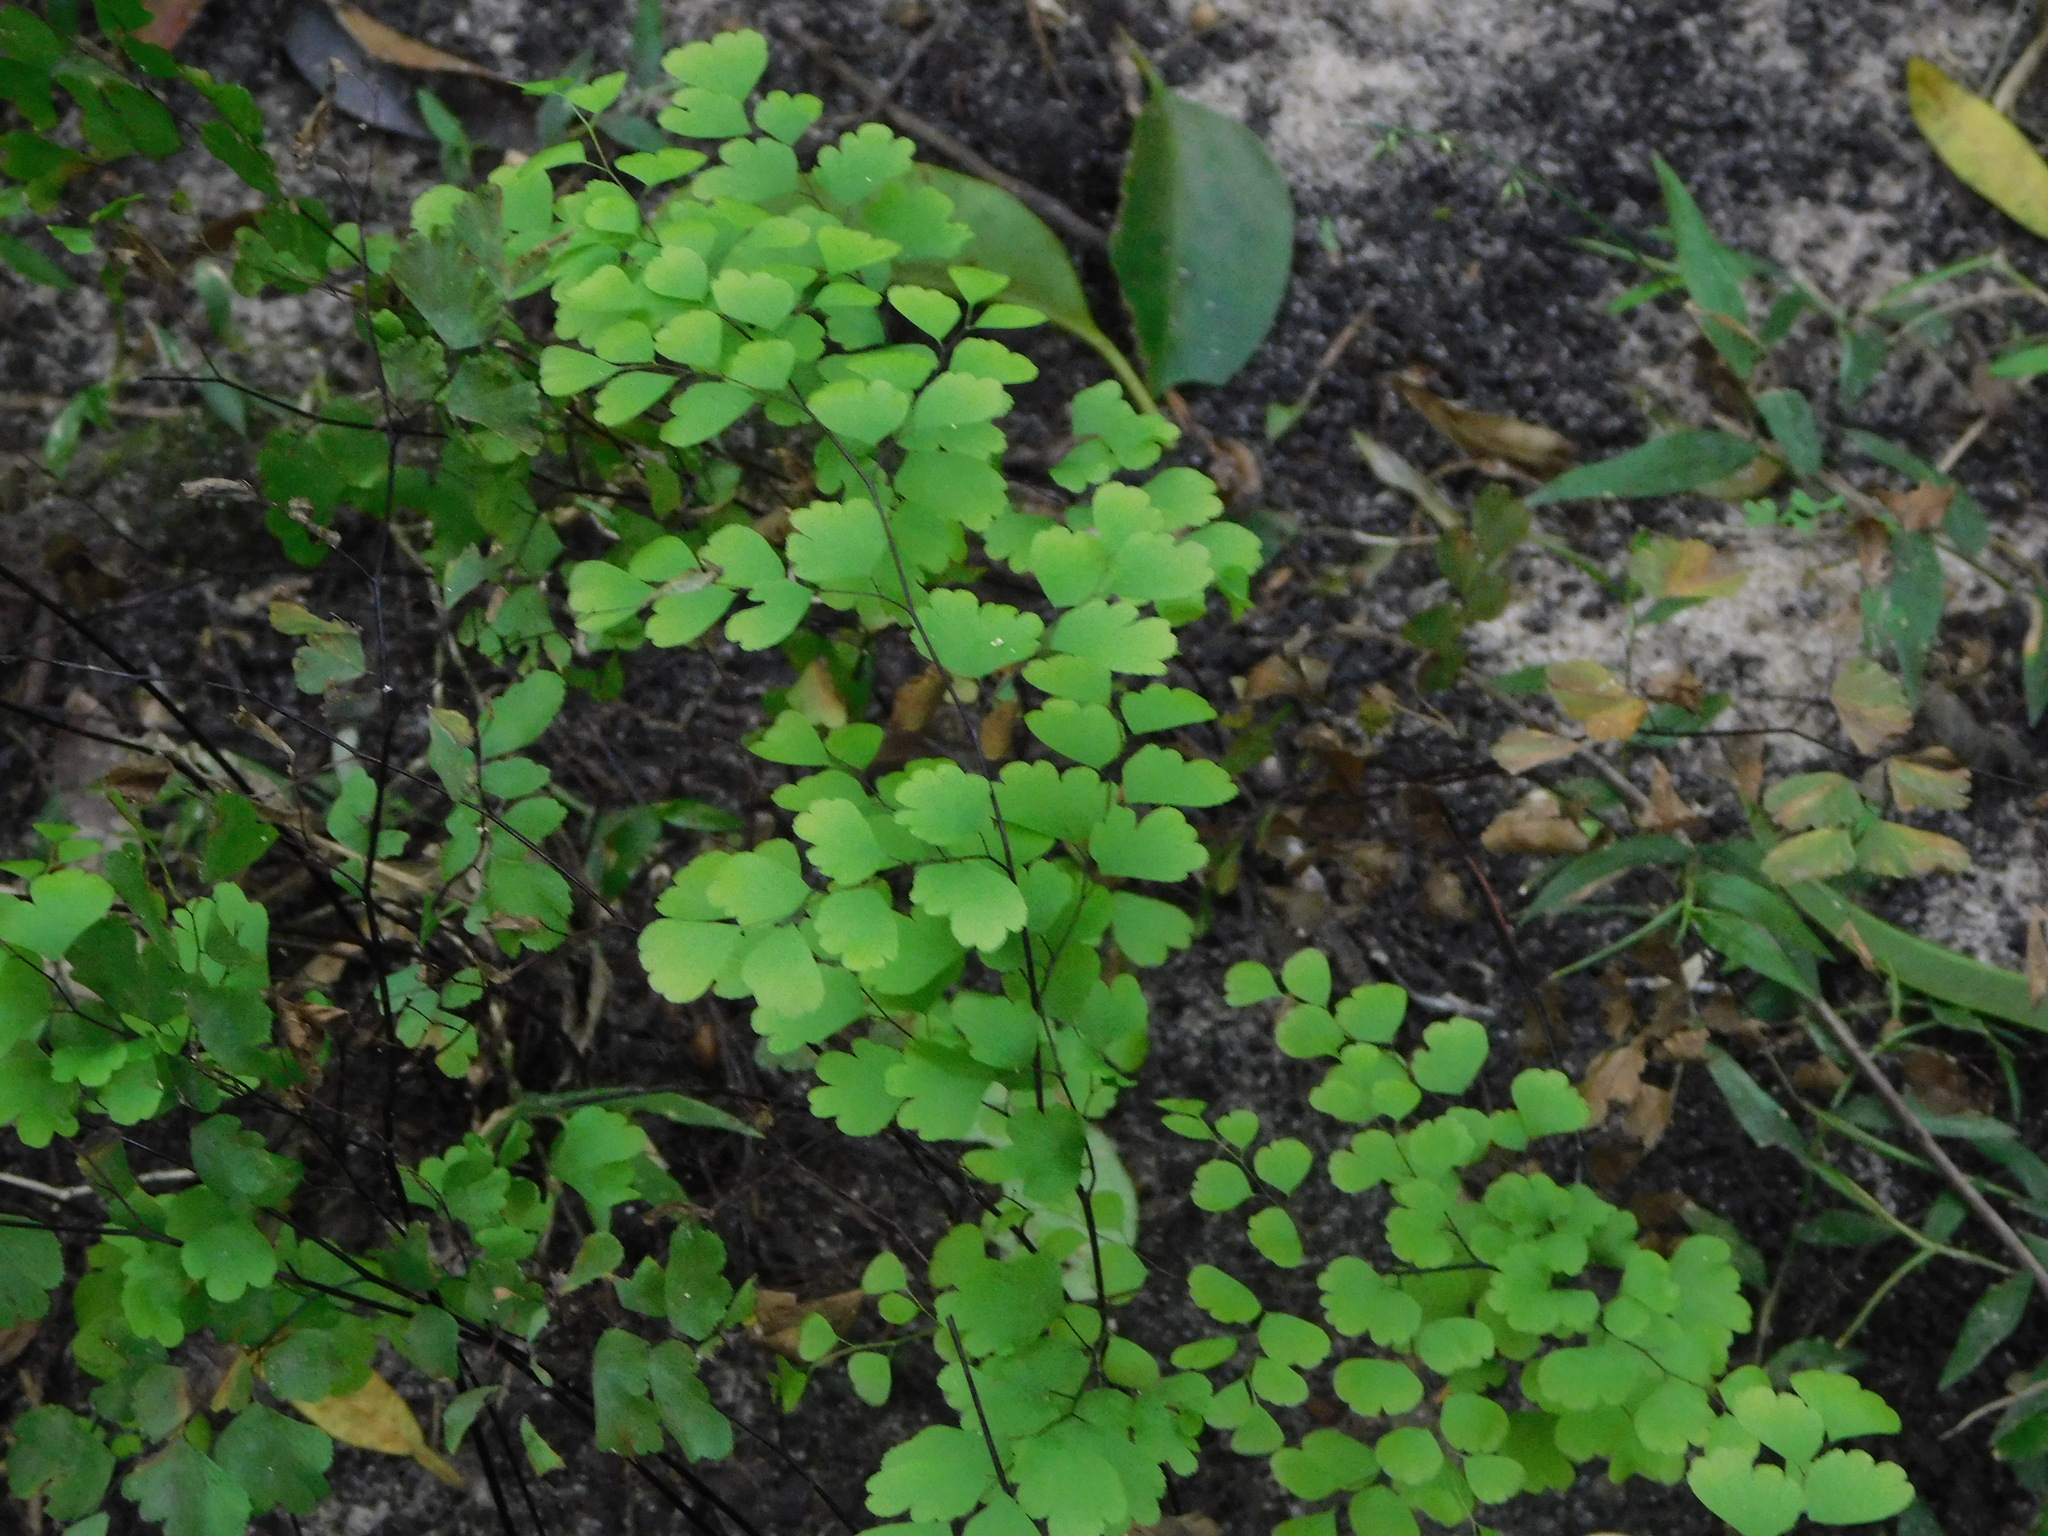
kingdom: Plantae
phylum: Tracheophyta
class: Polypodiopsida
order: Polypodiales
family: Pteridaceae
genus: Adiantum
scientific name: Adiantum raddianum
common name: Delta maidenhair fern
